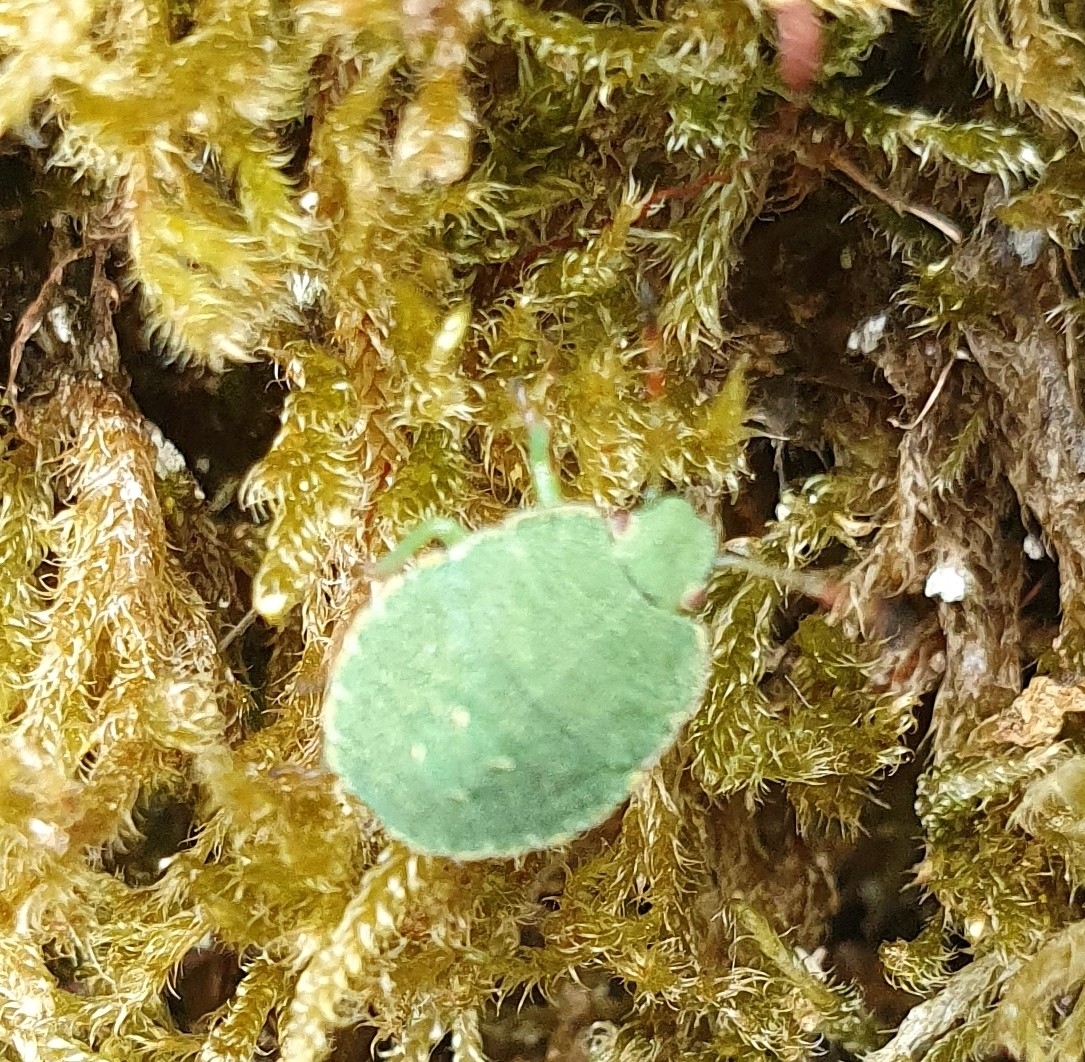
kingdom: Animalia
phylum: Arthropoda
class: Insecta
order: Hemiptera
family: Pentatomidae
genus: Palomena
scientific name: Palomena prasina
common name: Green shieldbug
